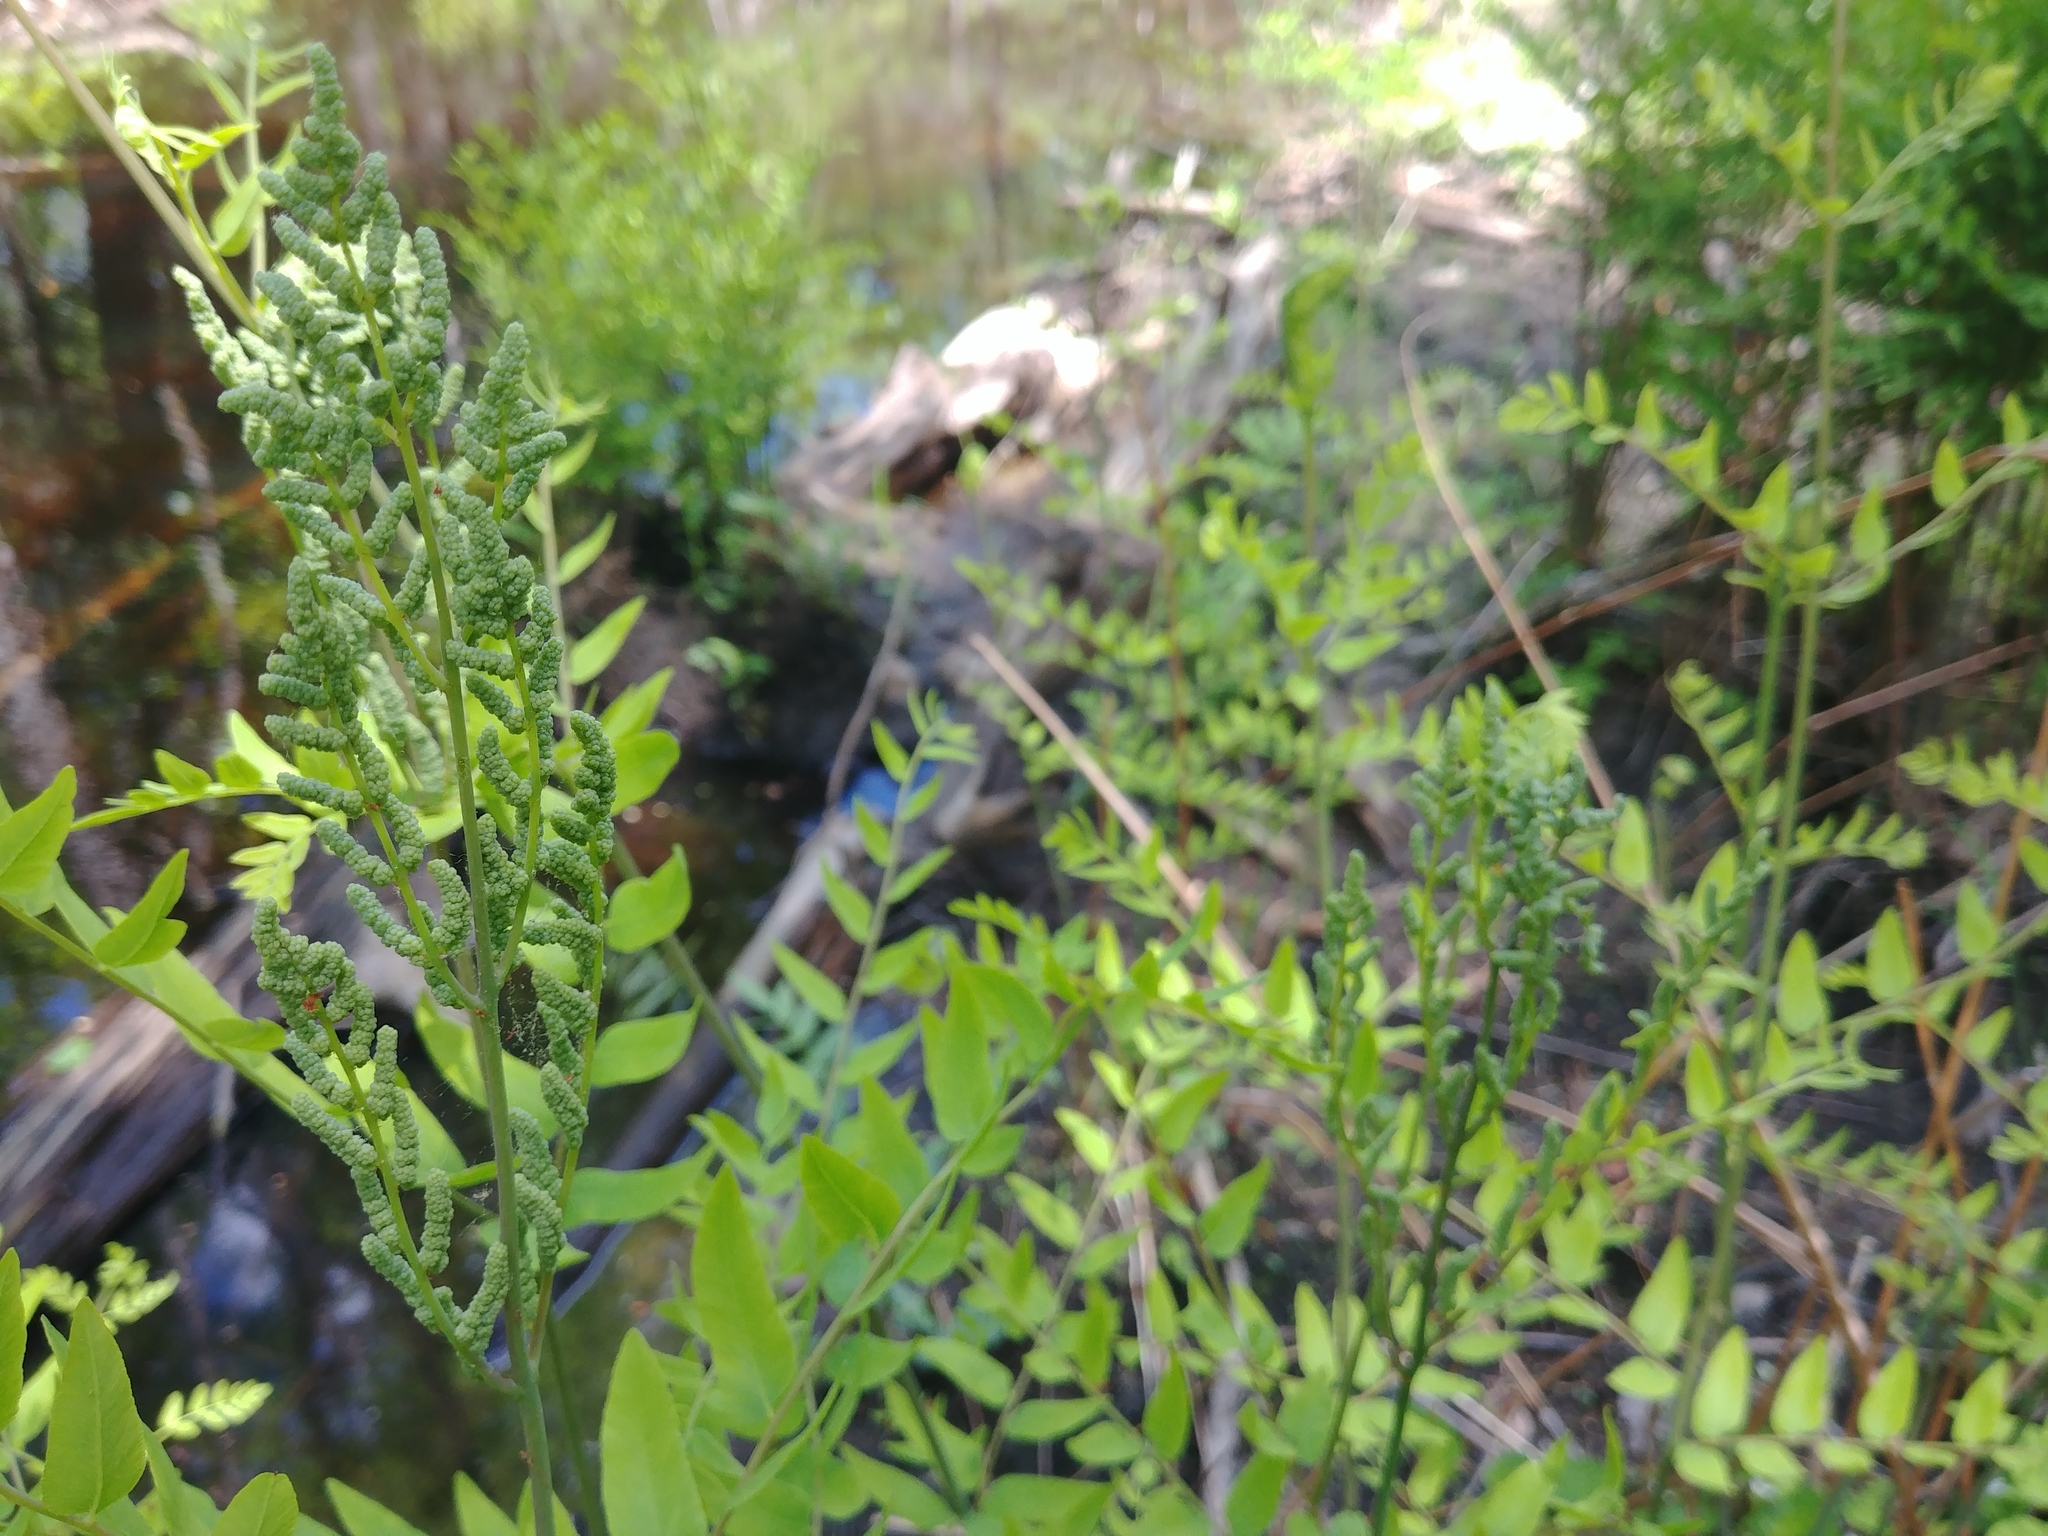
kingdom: Plantae
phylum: Tracheophyta
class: Polypodiopsida
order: Osmundales
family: Osmundaceae
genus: Osmunda
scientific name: Osmunda spectabilis
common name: American royal fern
